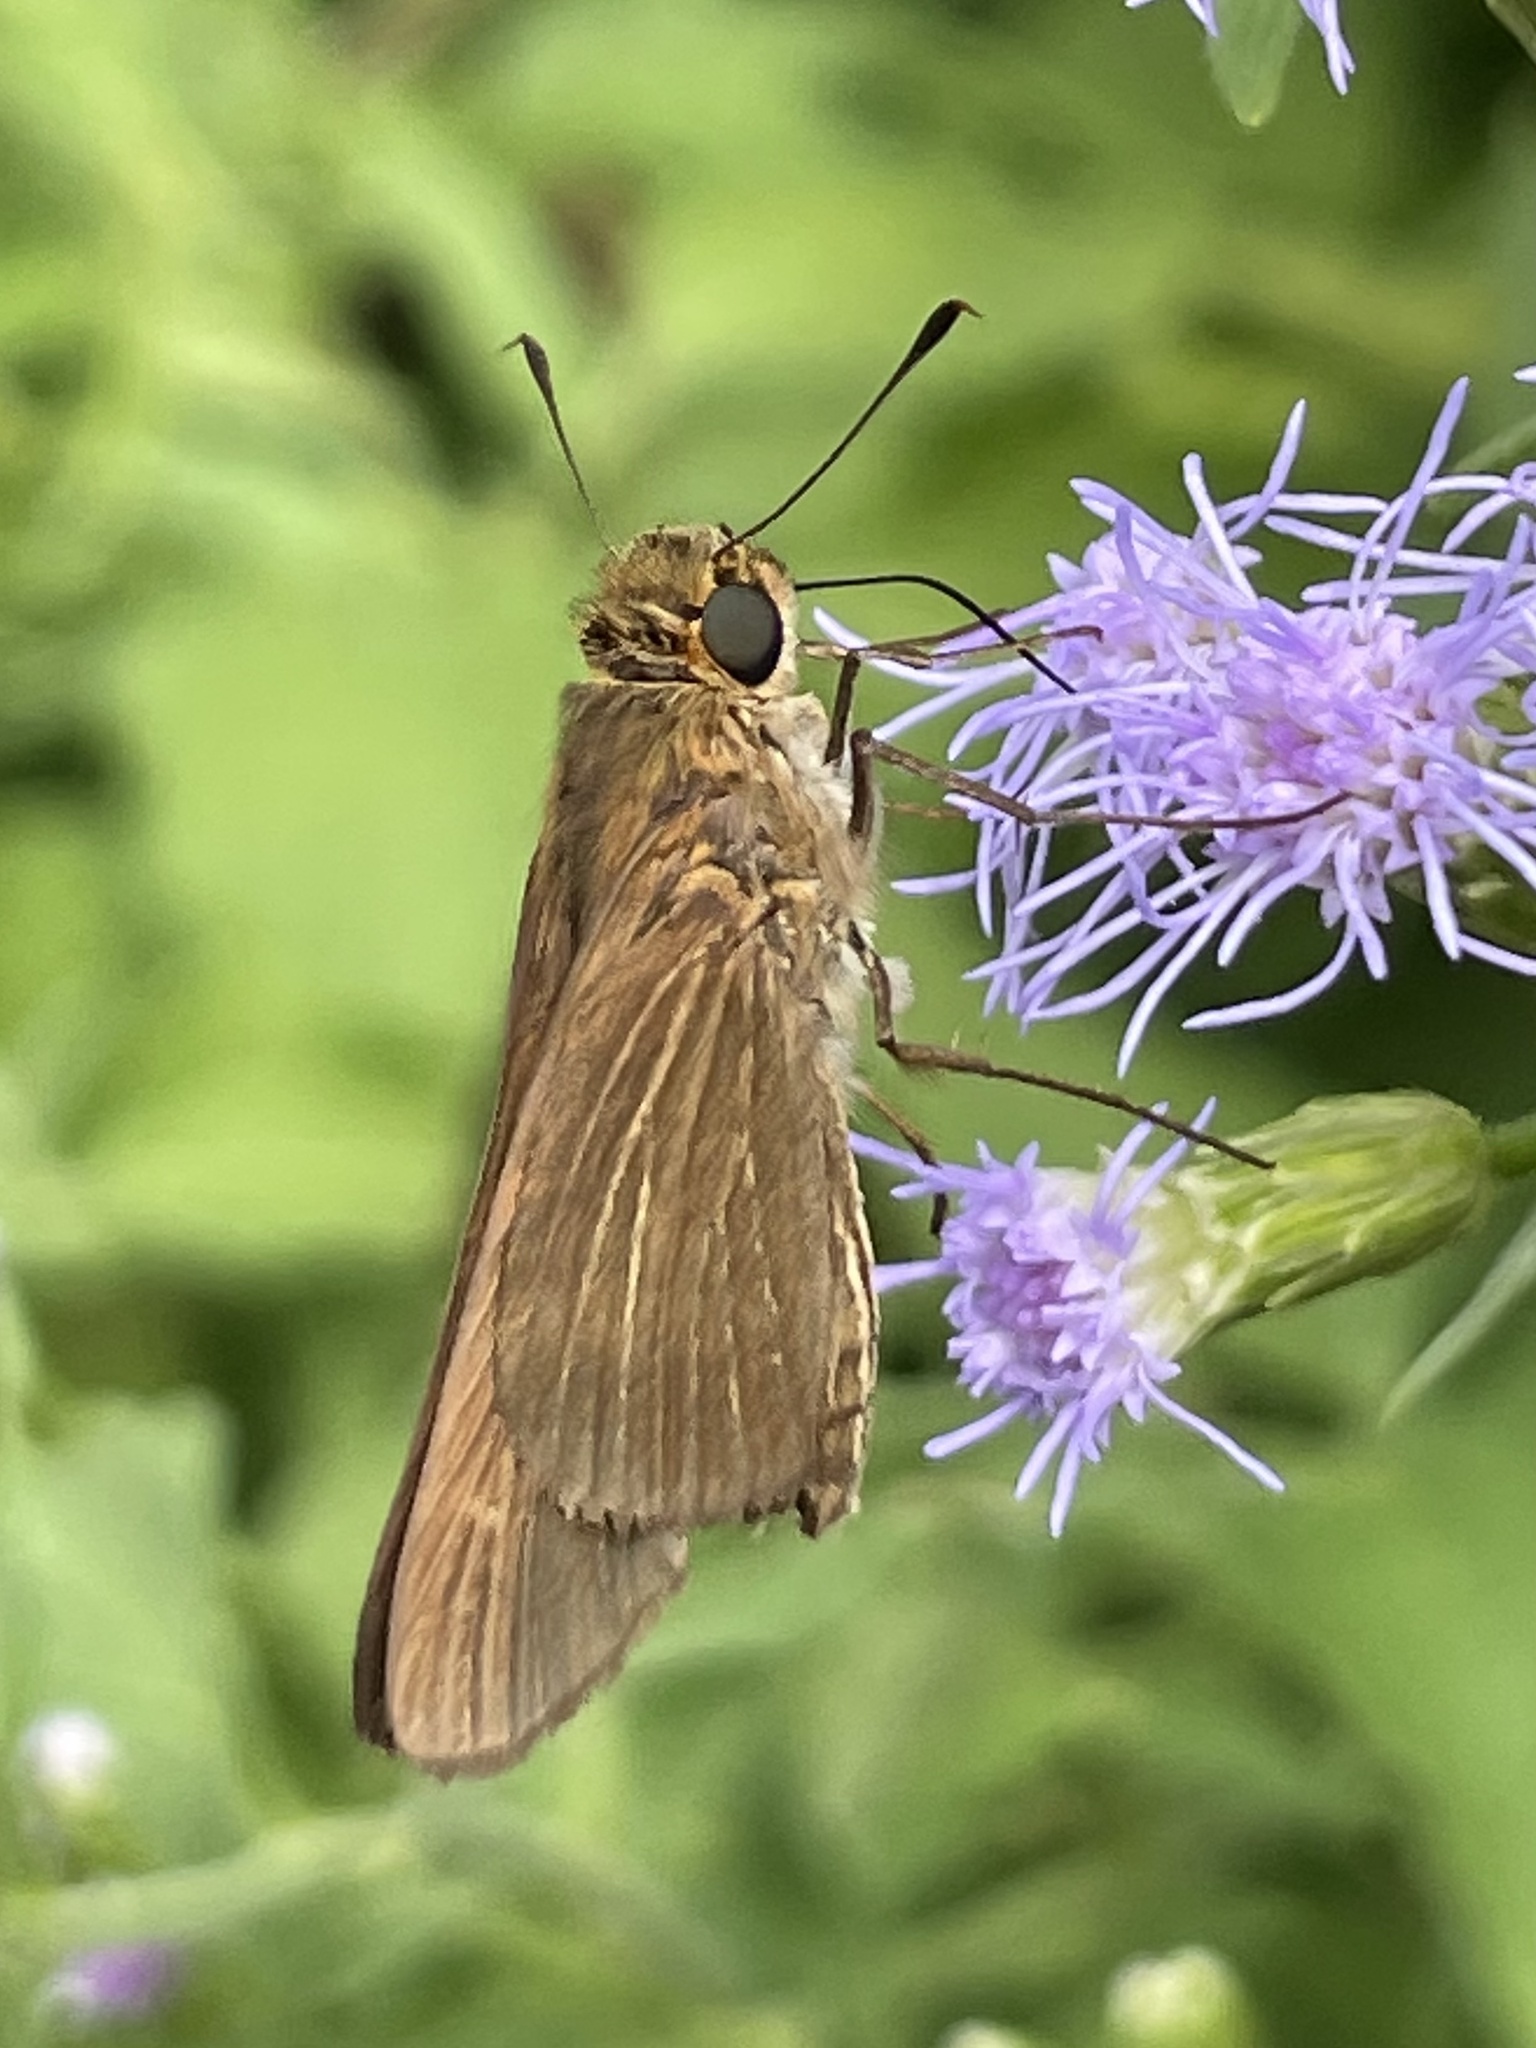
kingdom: Animalia
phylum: Arthropoda
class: Insecta
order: Lepidoptera
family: Hesperiidae
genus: Panoquina
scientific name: Panoquina ocola
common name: Ocola skipper
